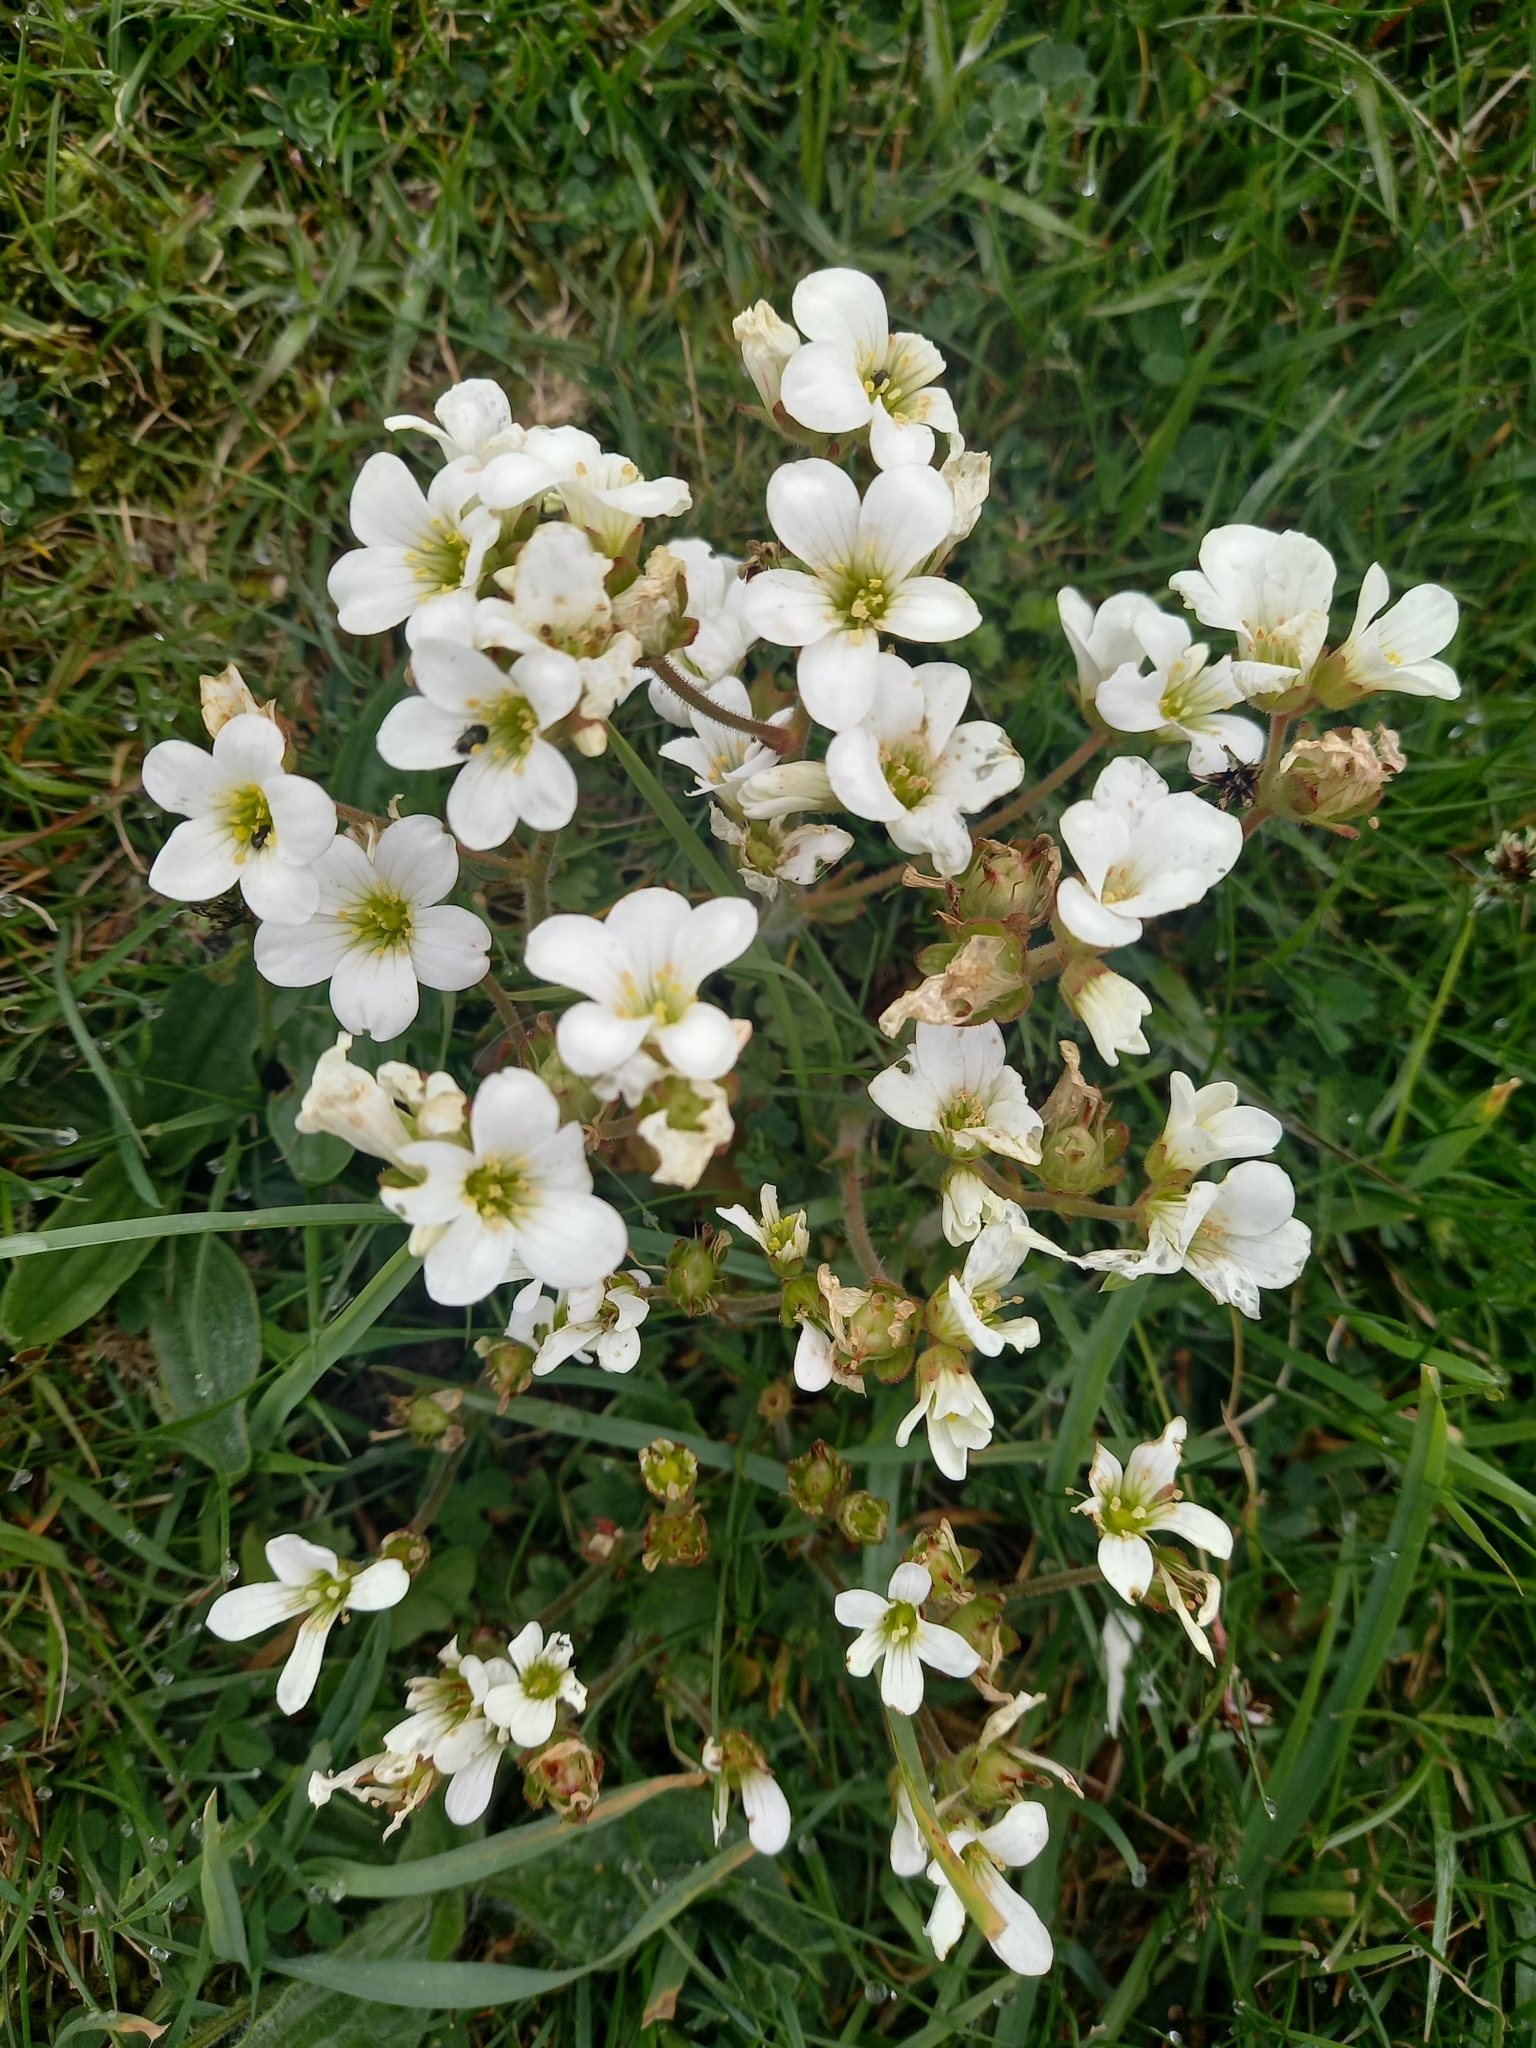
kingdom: Plantae
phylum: Tracheophyta
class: Magnoliopsida
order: Saxifragales
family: Saxifragaceae
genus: Saxifraga
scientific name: Saxifraga granulata
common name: Meadow saxifrage
